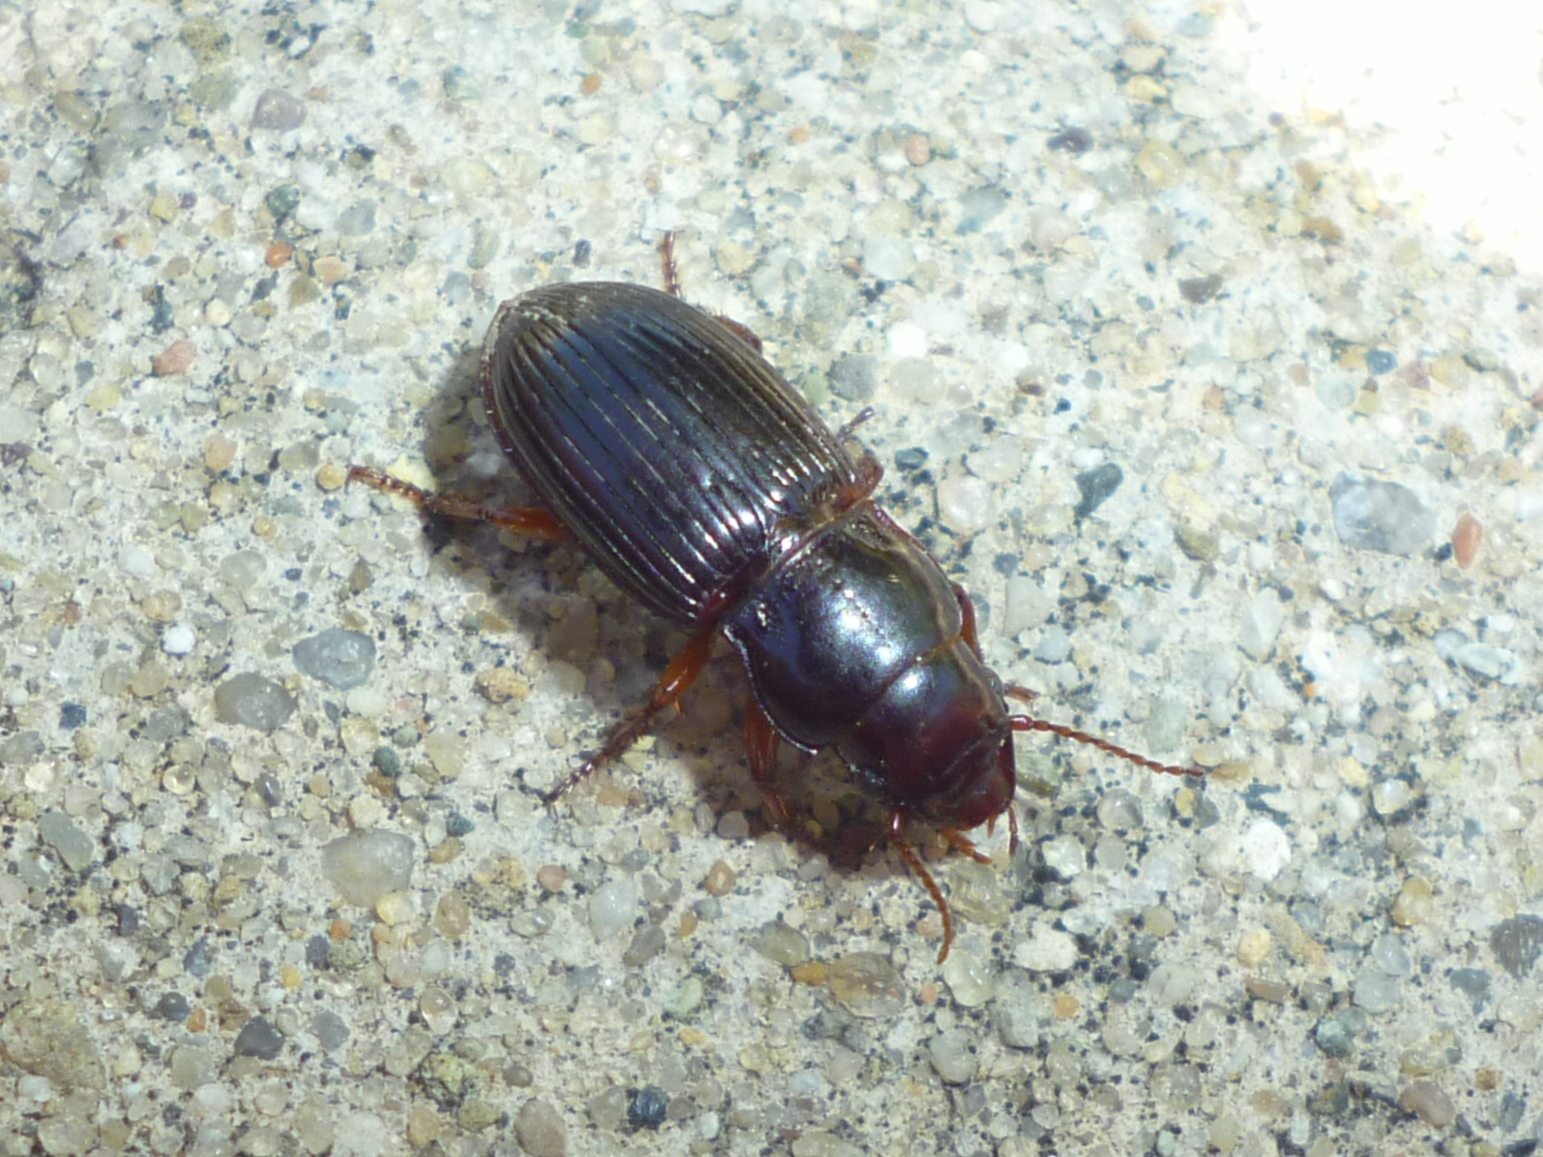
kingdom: Animalia
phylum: Arthropoda
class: Insecta
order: Coleoptera
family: Carabidae
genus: Cratacanthus
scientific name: Cratacanthus dubius
